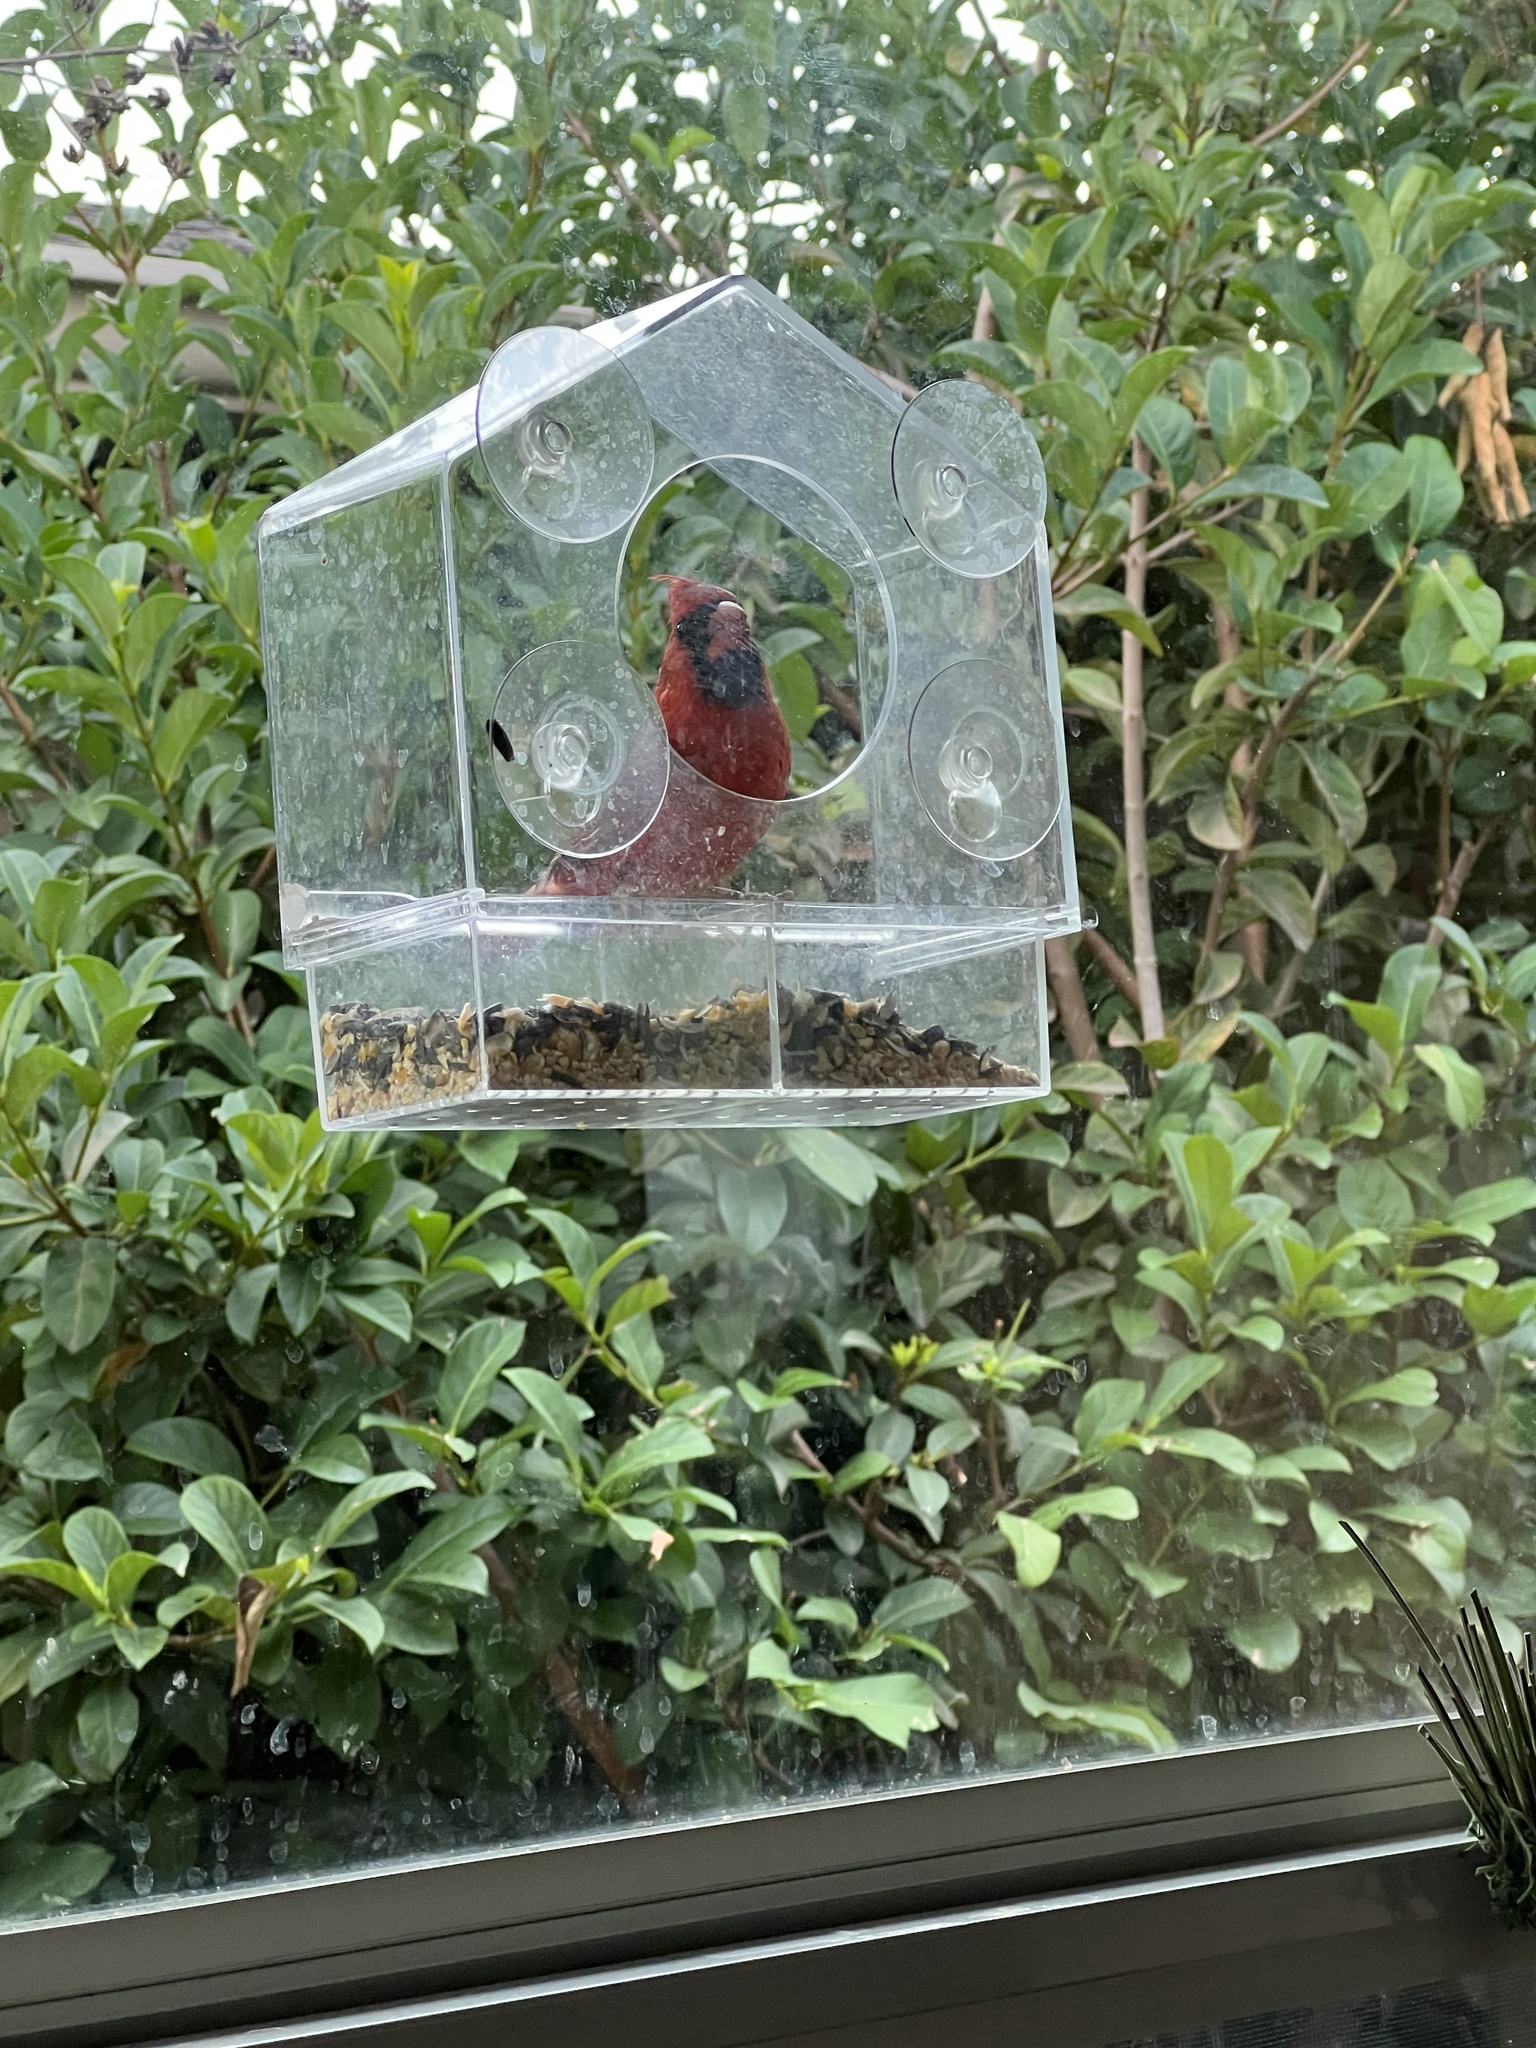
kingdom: Animalia
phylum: Chordata
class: Aves
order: Passeriformes
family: Cardinalidae
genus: Cardinalis
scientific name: Cardinalis cardinalis
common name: Northern cardinal
